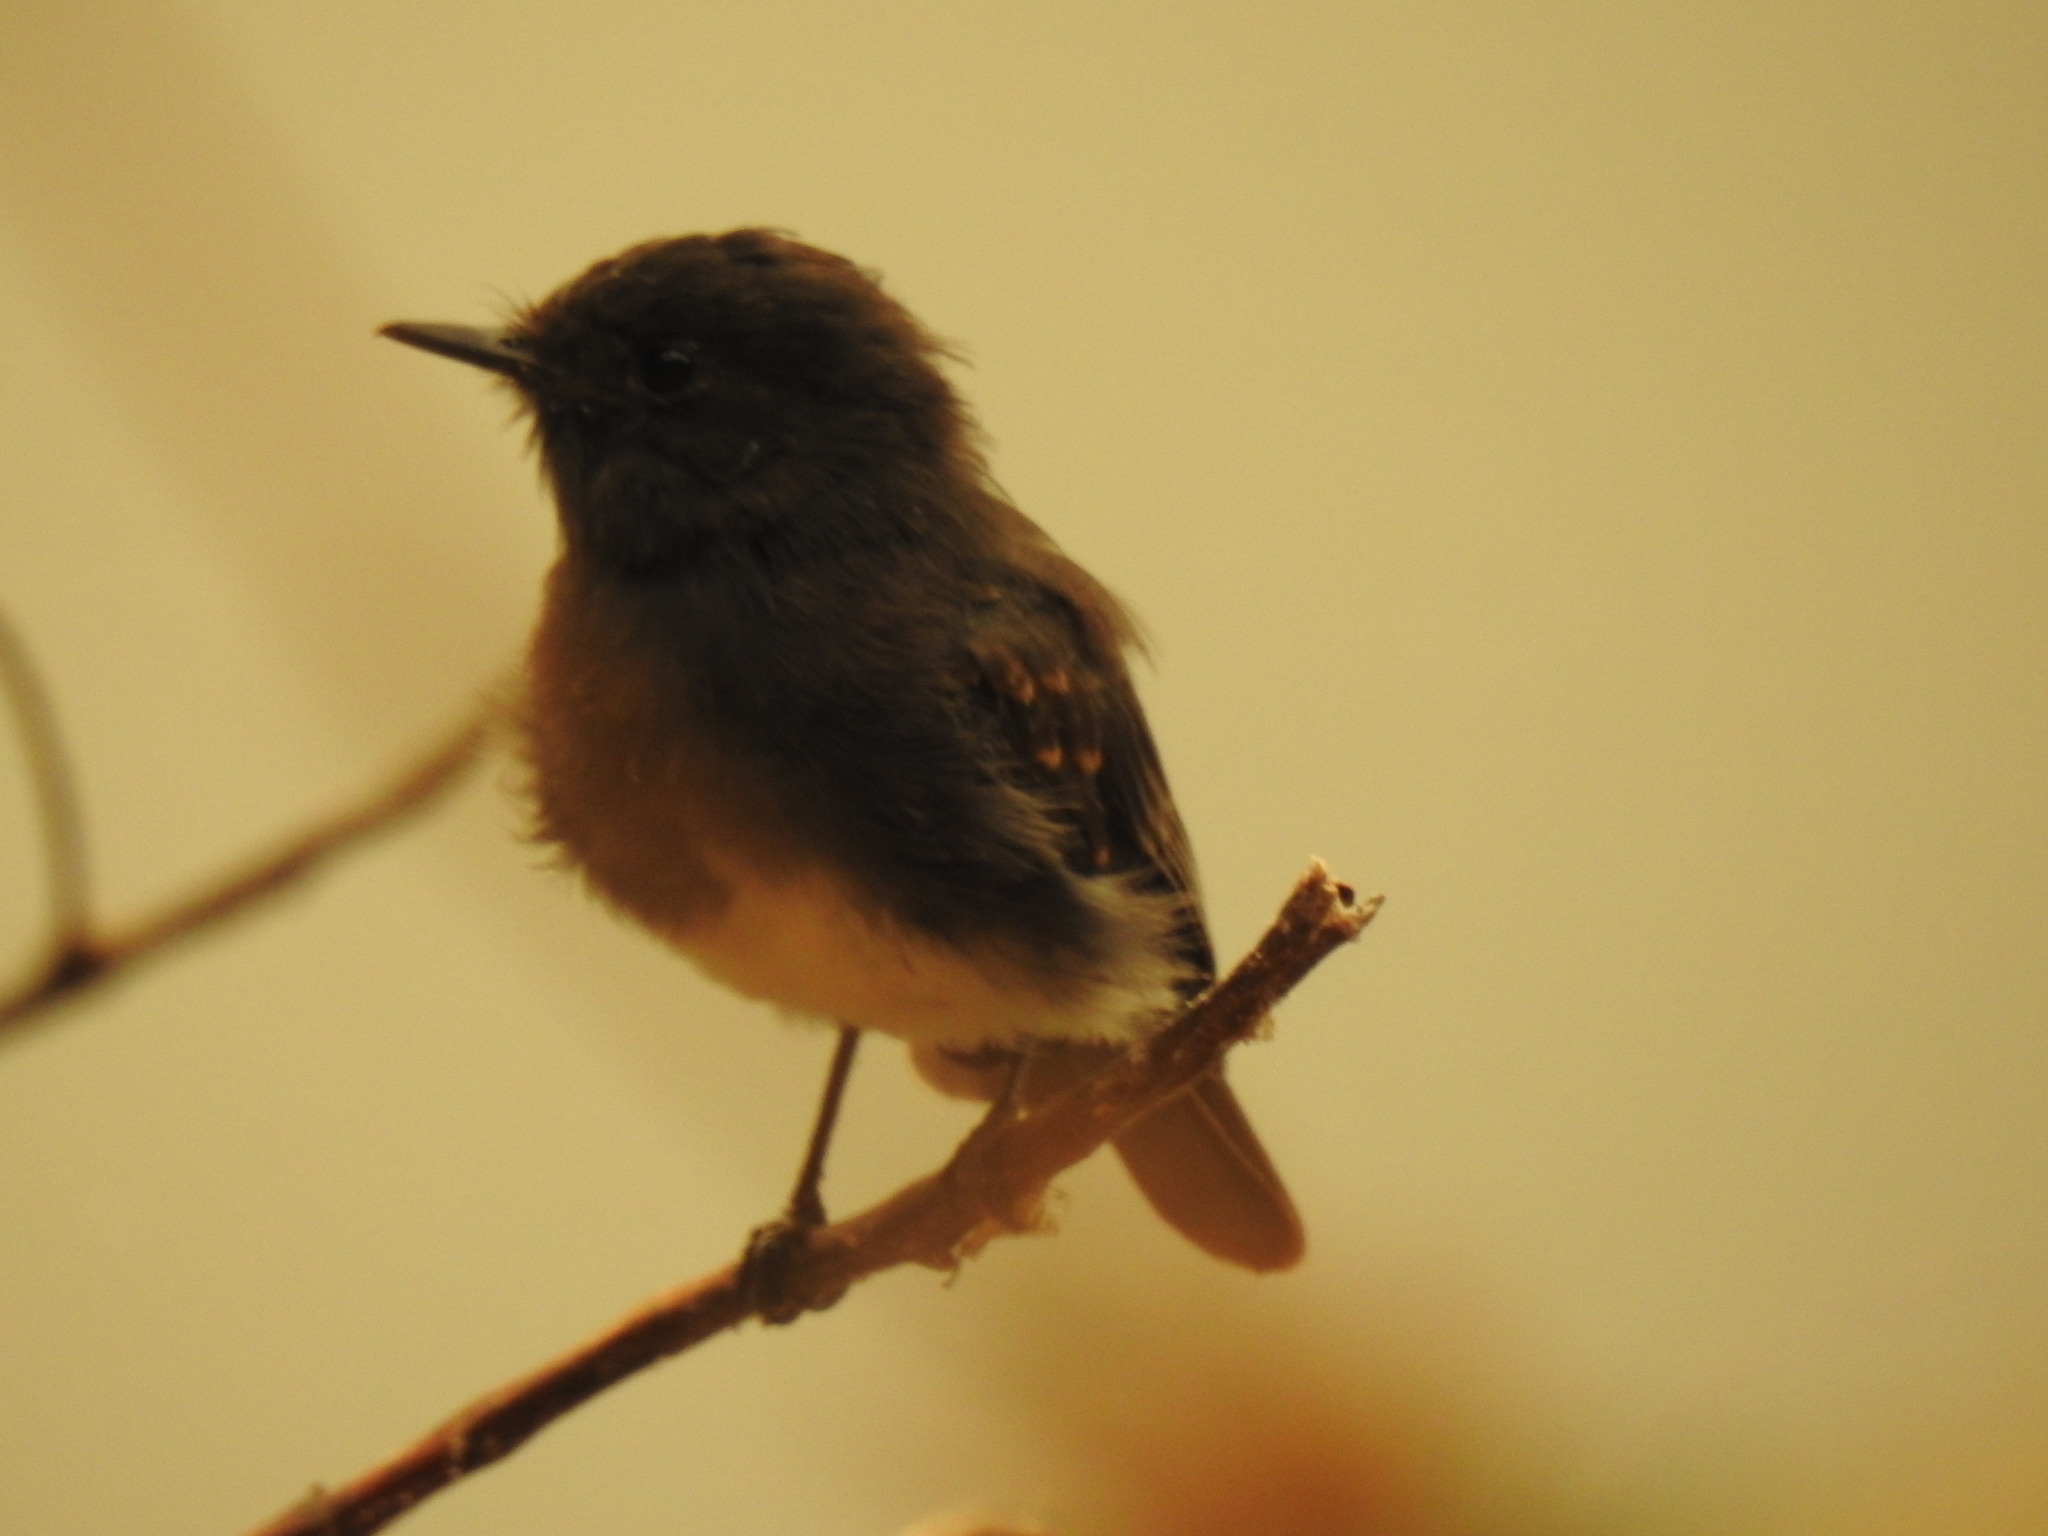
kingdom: Animalia
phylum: Chordata
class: Aves
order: Passeriformes
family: Tyrannidae
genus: Sayornis
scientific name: Sayornis nigricans
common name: Black phoebe
